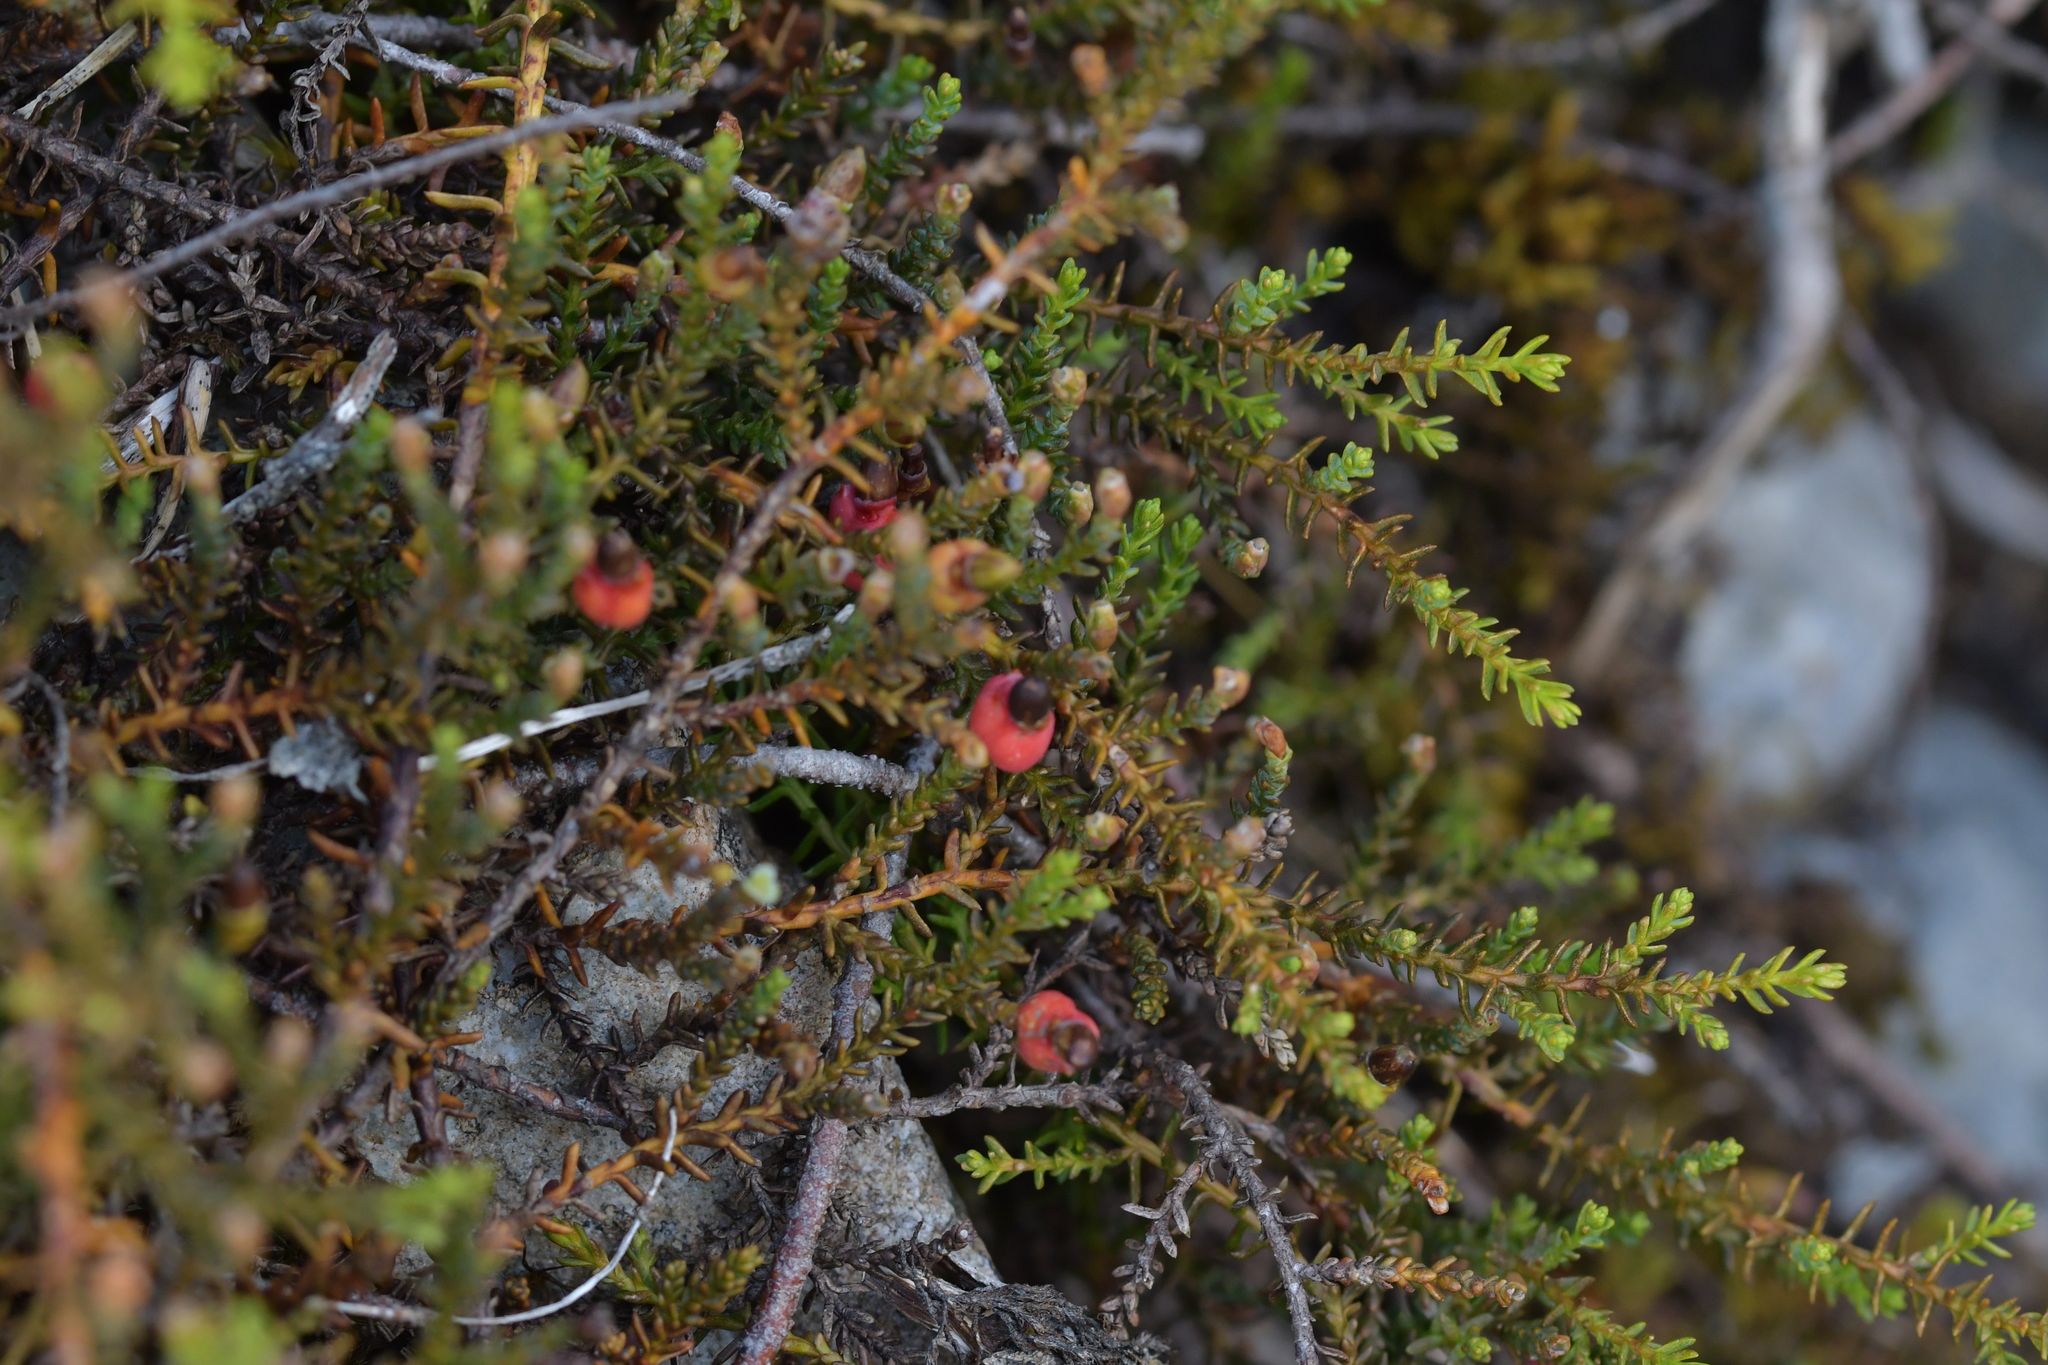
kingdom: Plantae
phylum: Tracheophyta
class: Pinopsida
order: Pinales
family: Podocarpaceae
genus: Lepidothamnus
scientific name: Lepidothamnus laxifolius
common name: Pygmy pine
